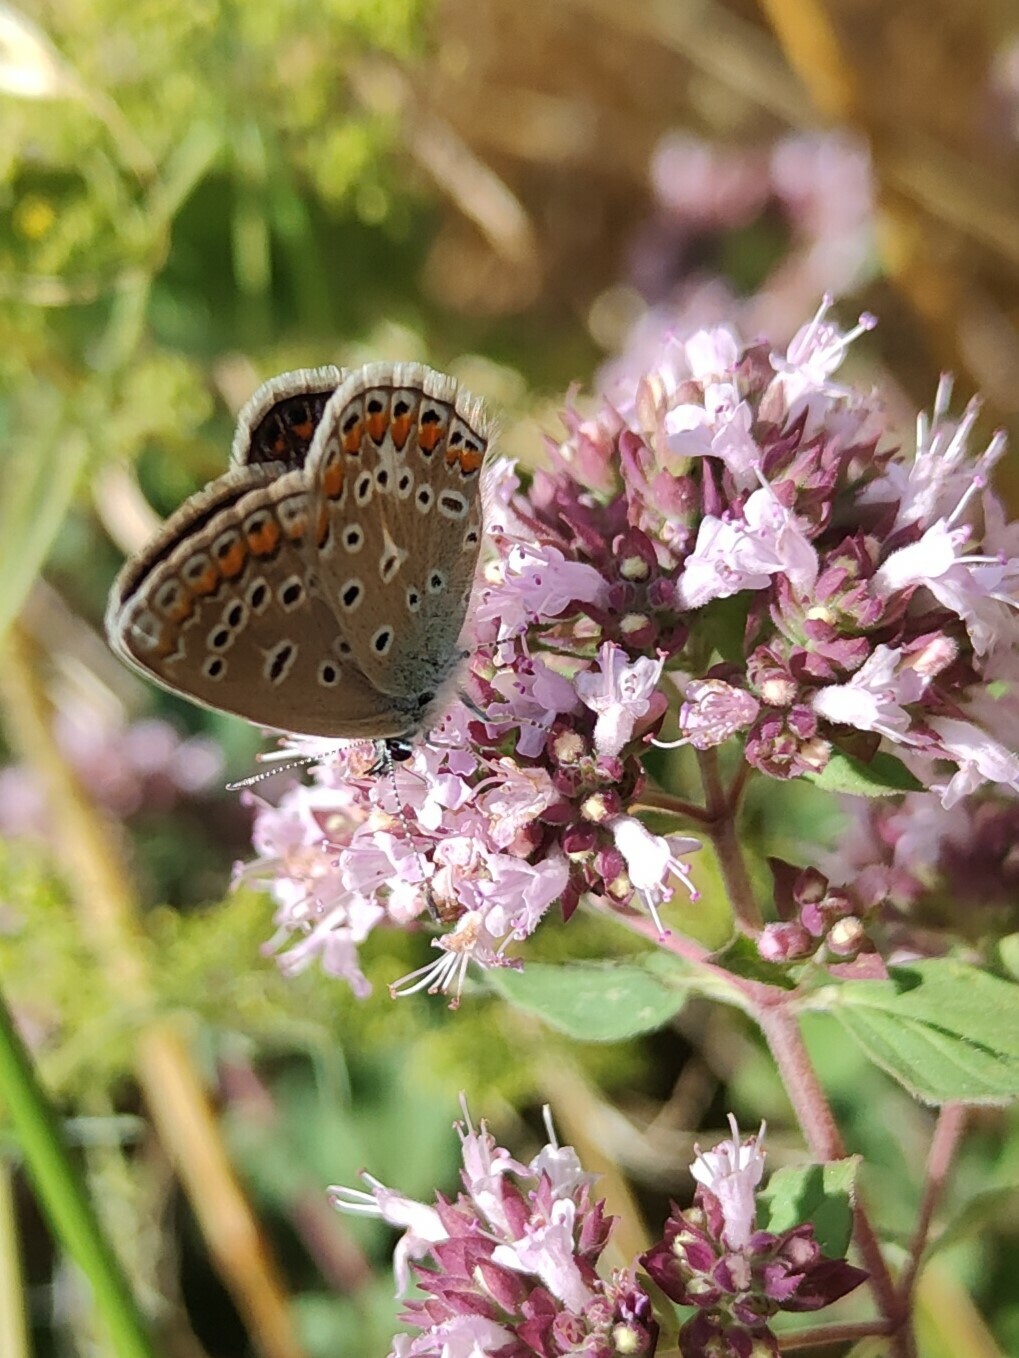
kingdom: Animalia
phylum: Arthropoda
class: Insecta
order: Lepidoptera
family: Lycaenidae
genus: Polyommatus
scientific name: Polyommatus icarus
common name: Common blue
